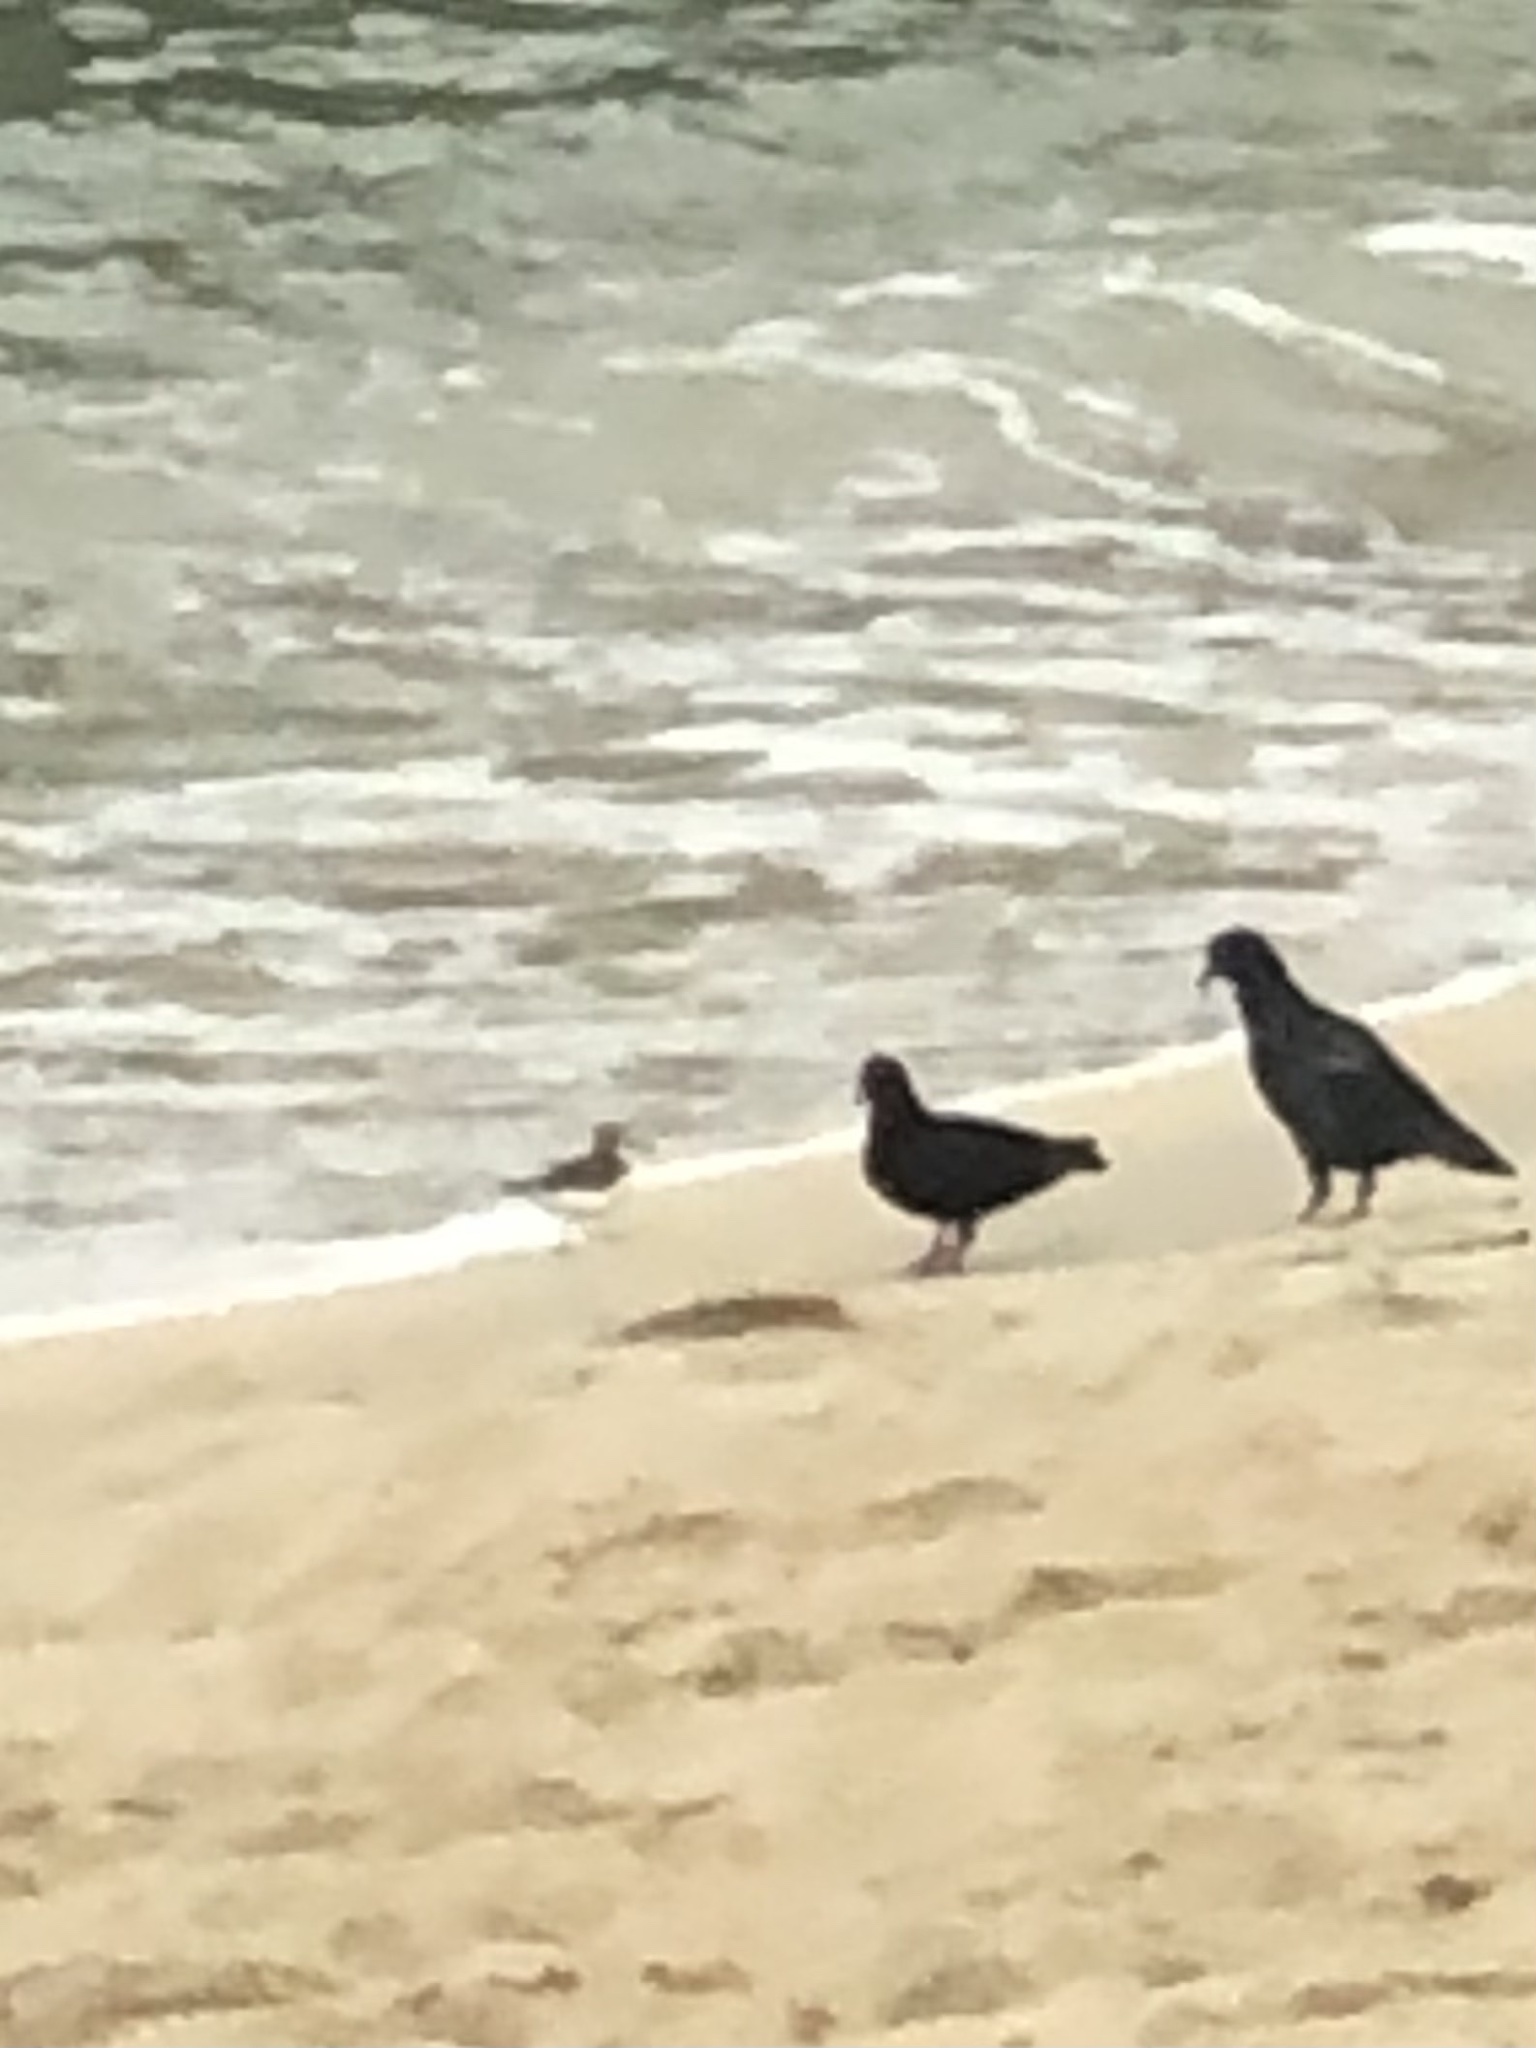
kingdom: Animalia
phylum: Chordata
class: Aves
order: Charadriiformes
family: Scolopacidae
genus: Actitis
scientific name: Actitis hypoleucos
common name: Common sandpiper
